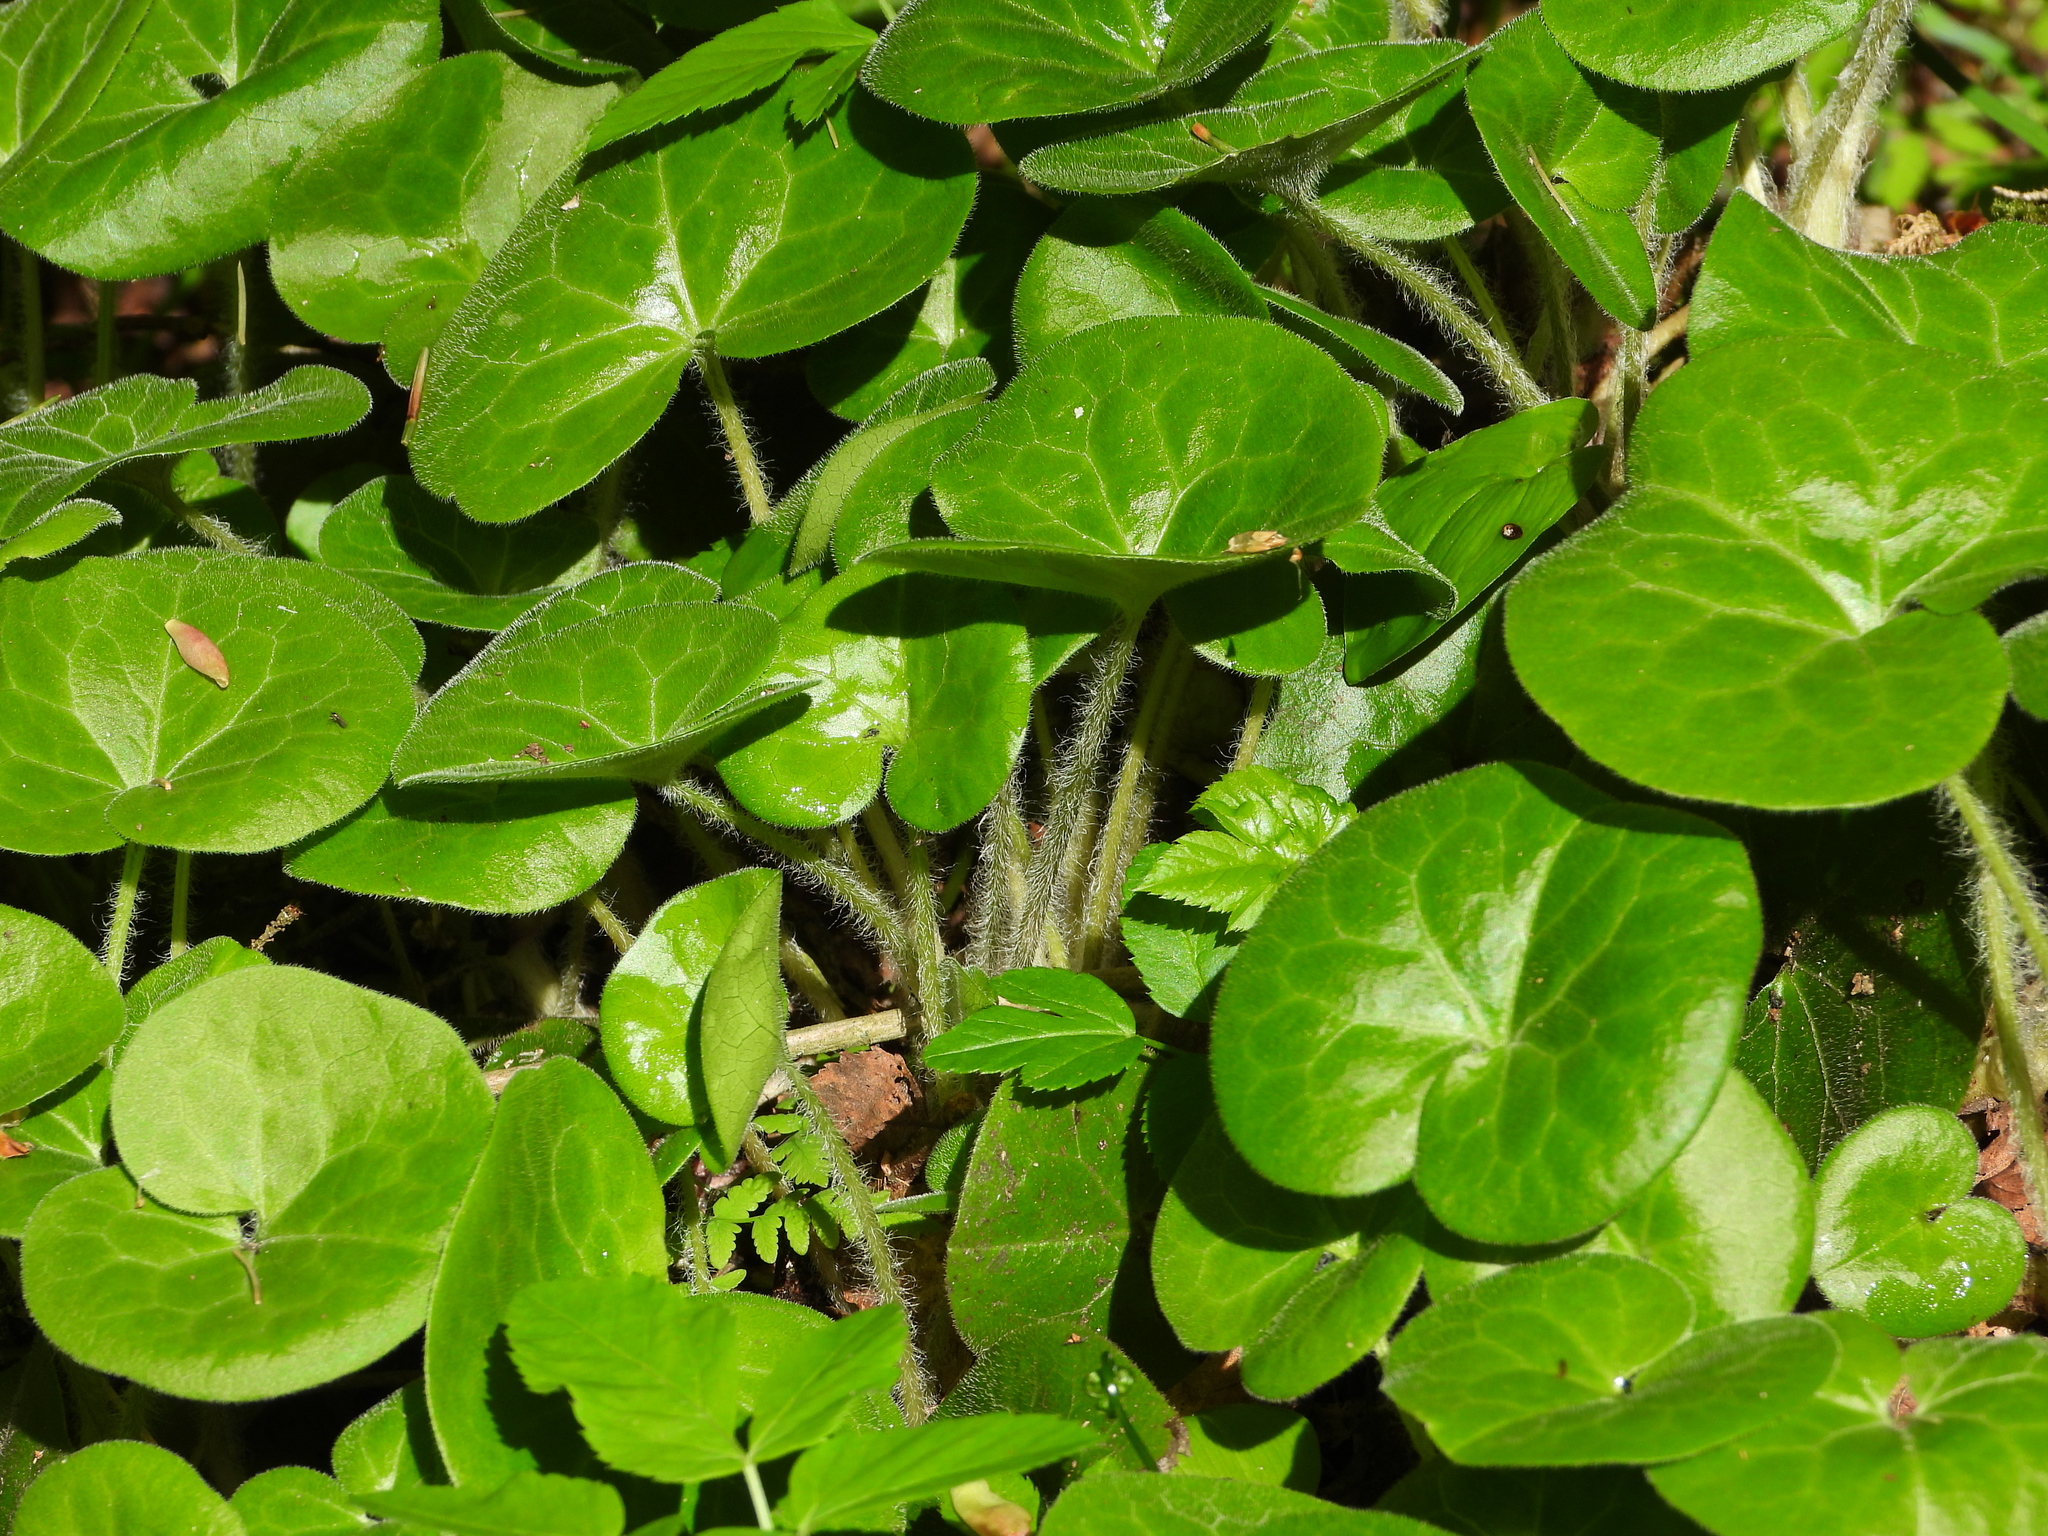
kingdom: Plantae
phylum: Tracheophyta
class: Magnoliopsida
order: Piperales
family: Aristolochiaceae
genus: Asarum
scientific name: Asarum europaeum
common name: Asarabacca
